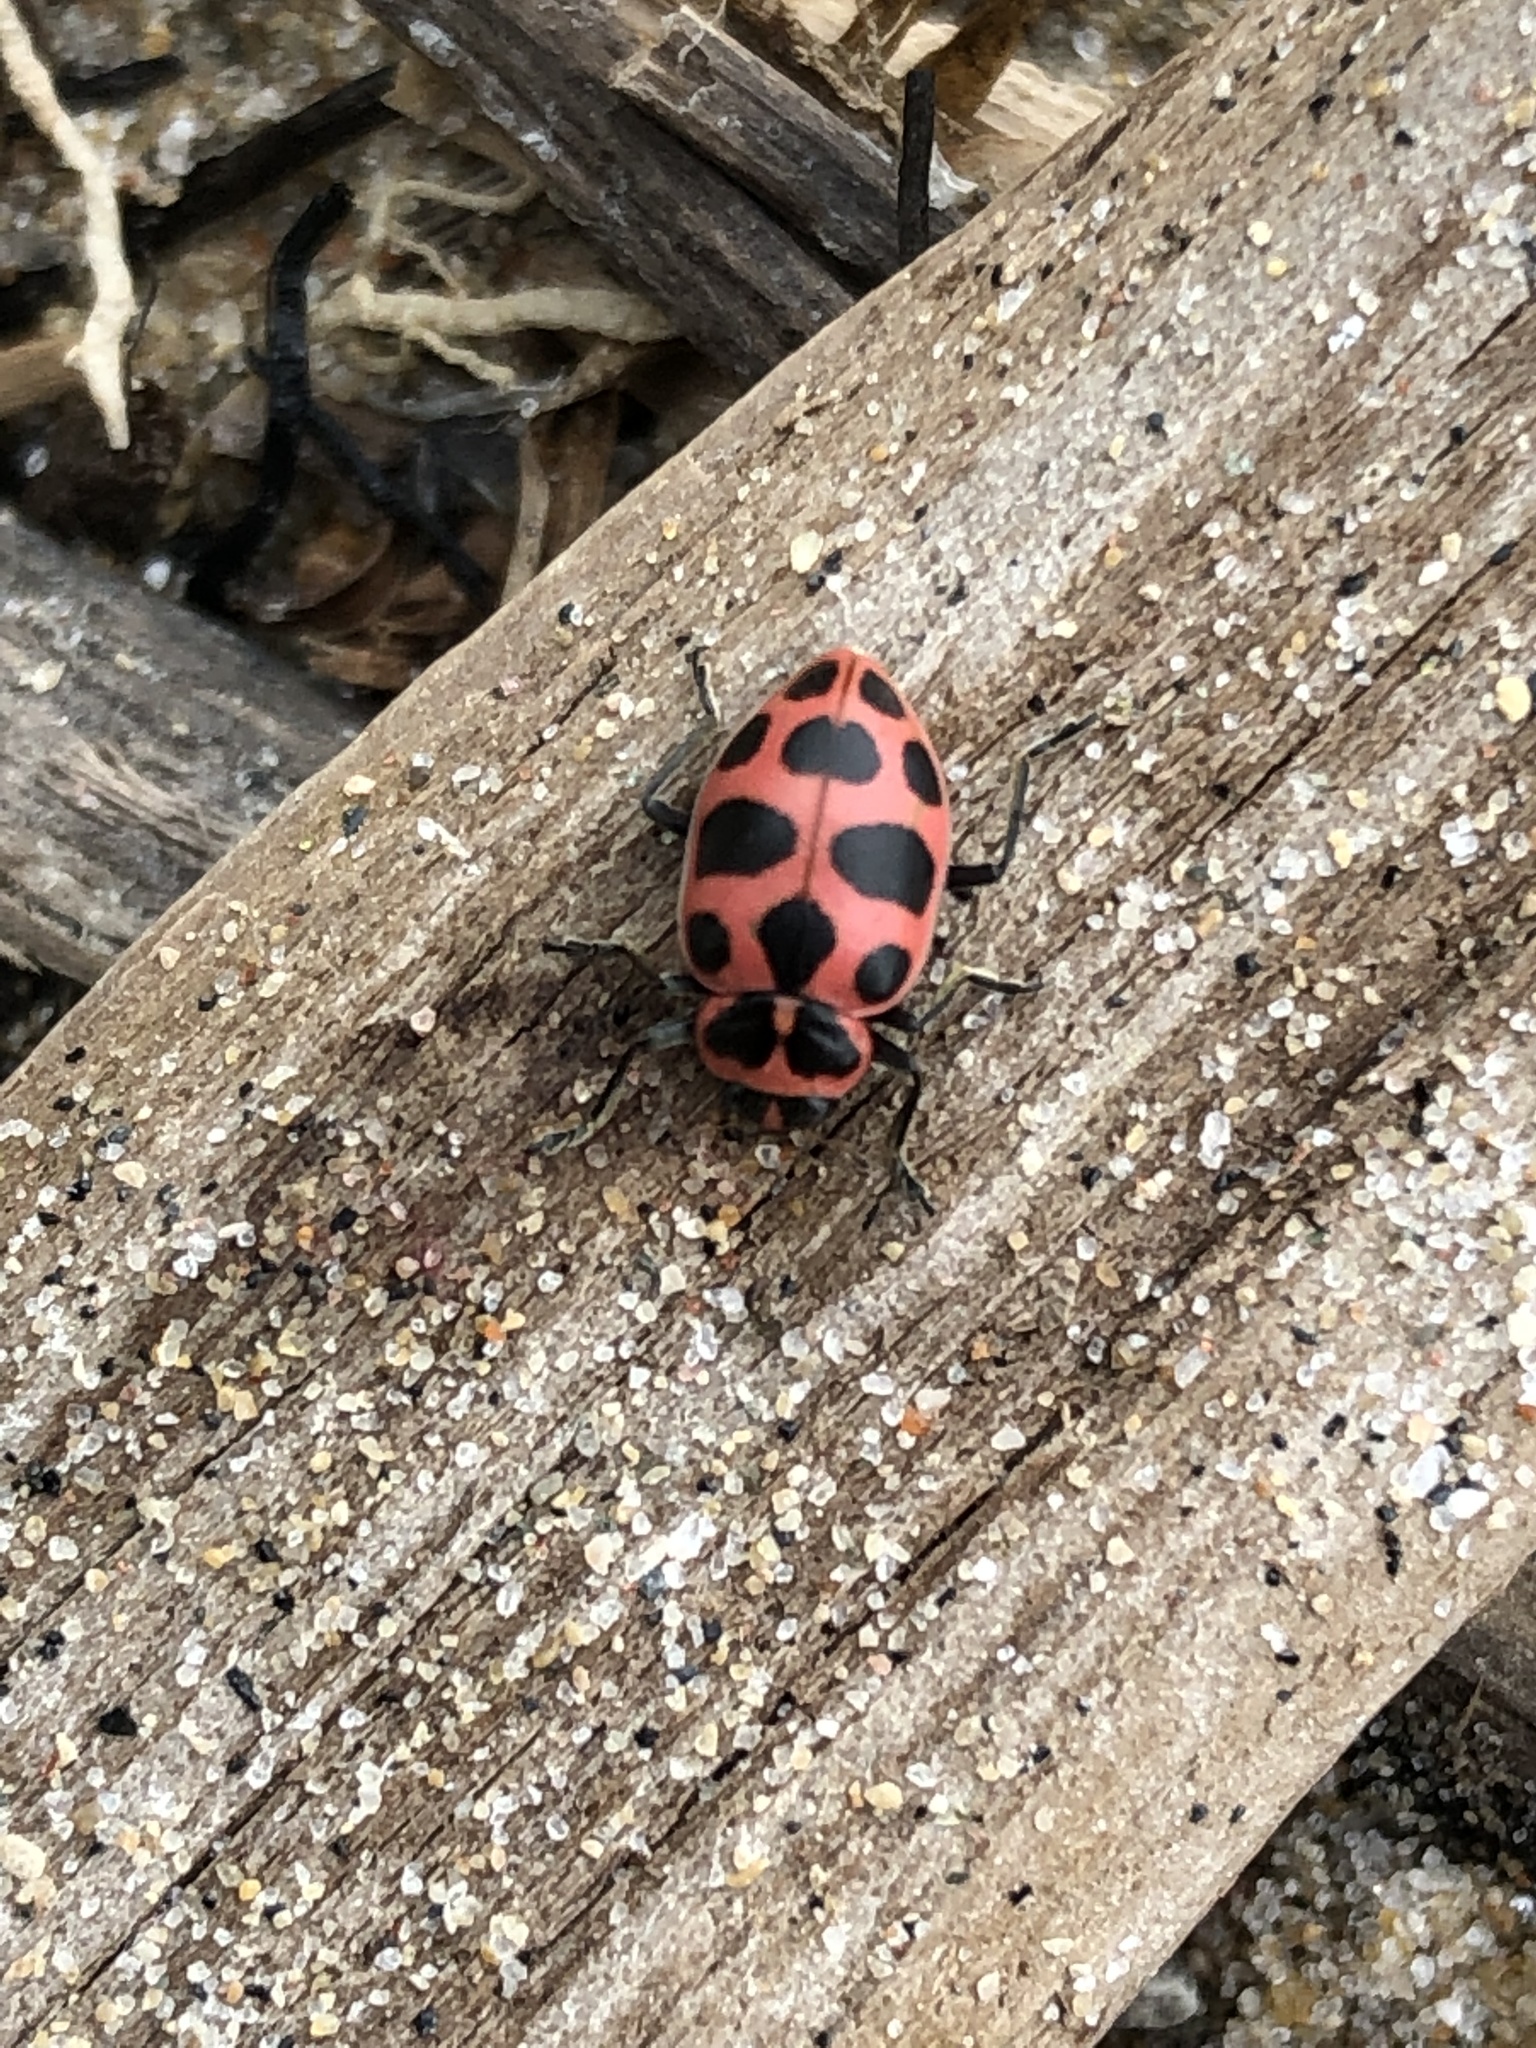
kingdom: Animalia
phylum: Arthropoda
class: Insecta
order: Coleoptera
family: Coccinellidae
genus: Coleomegilla
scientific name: Coleomegilla maculata
